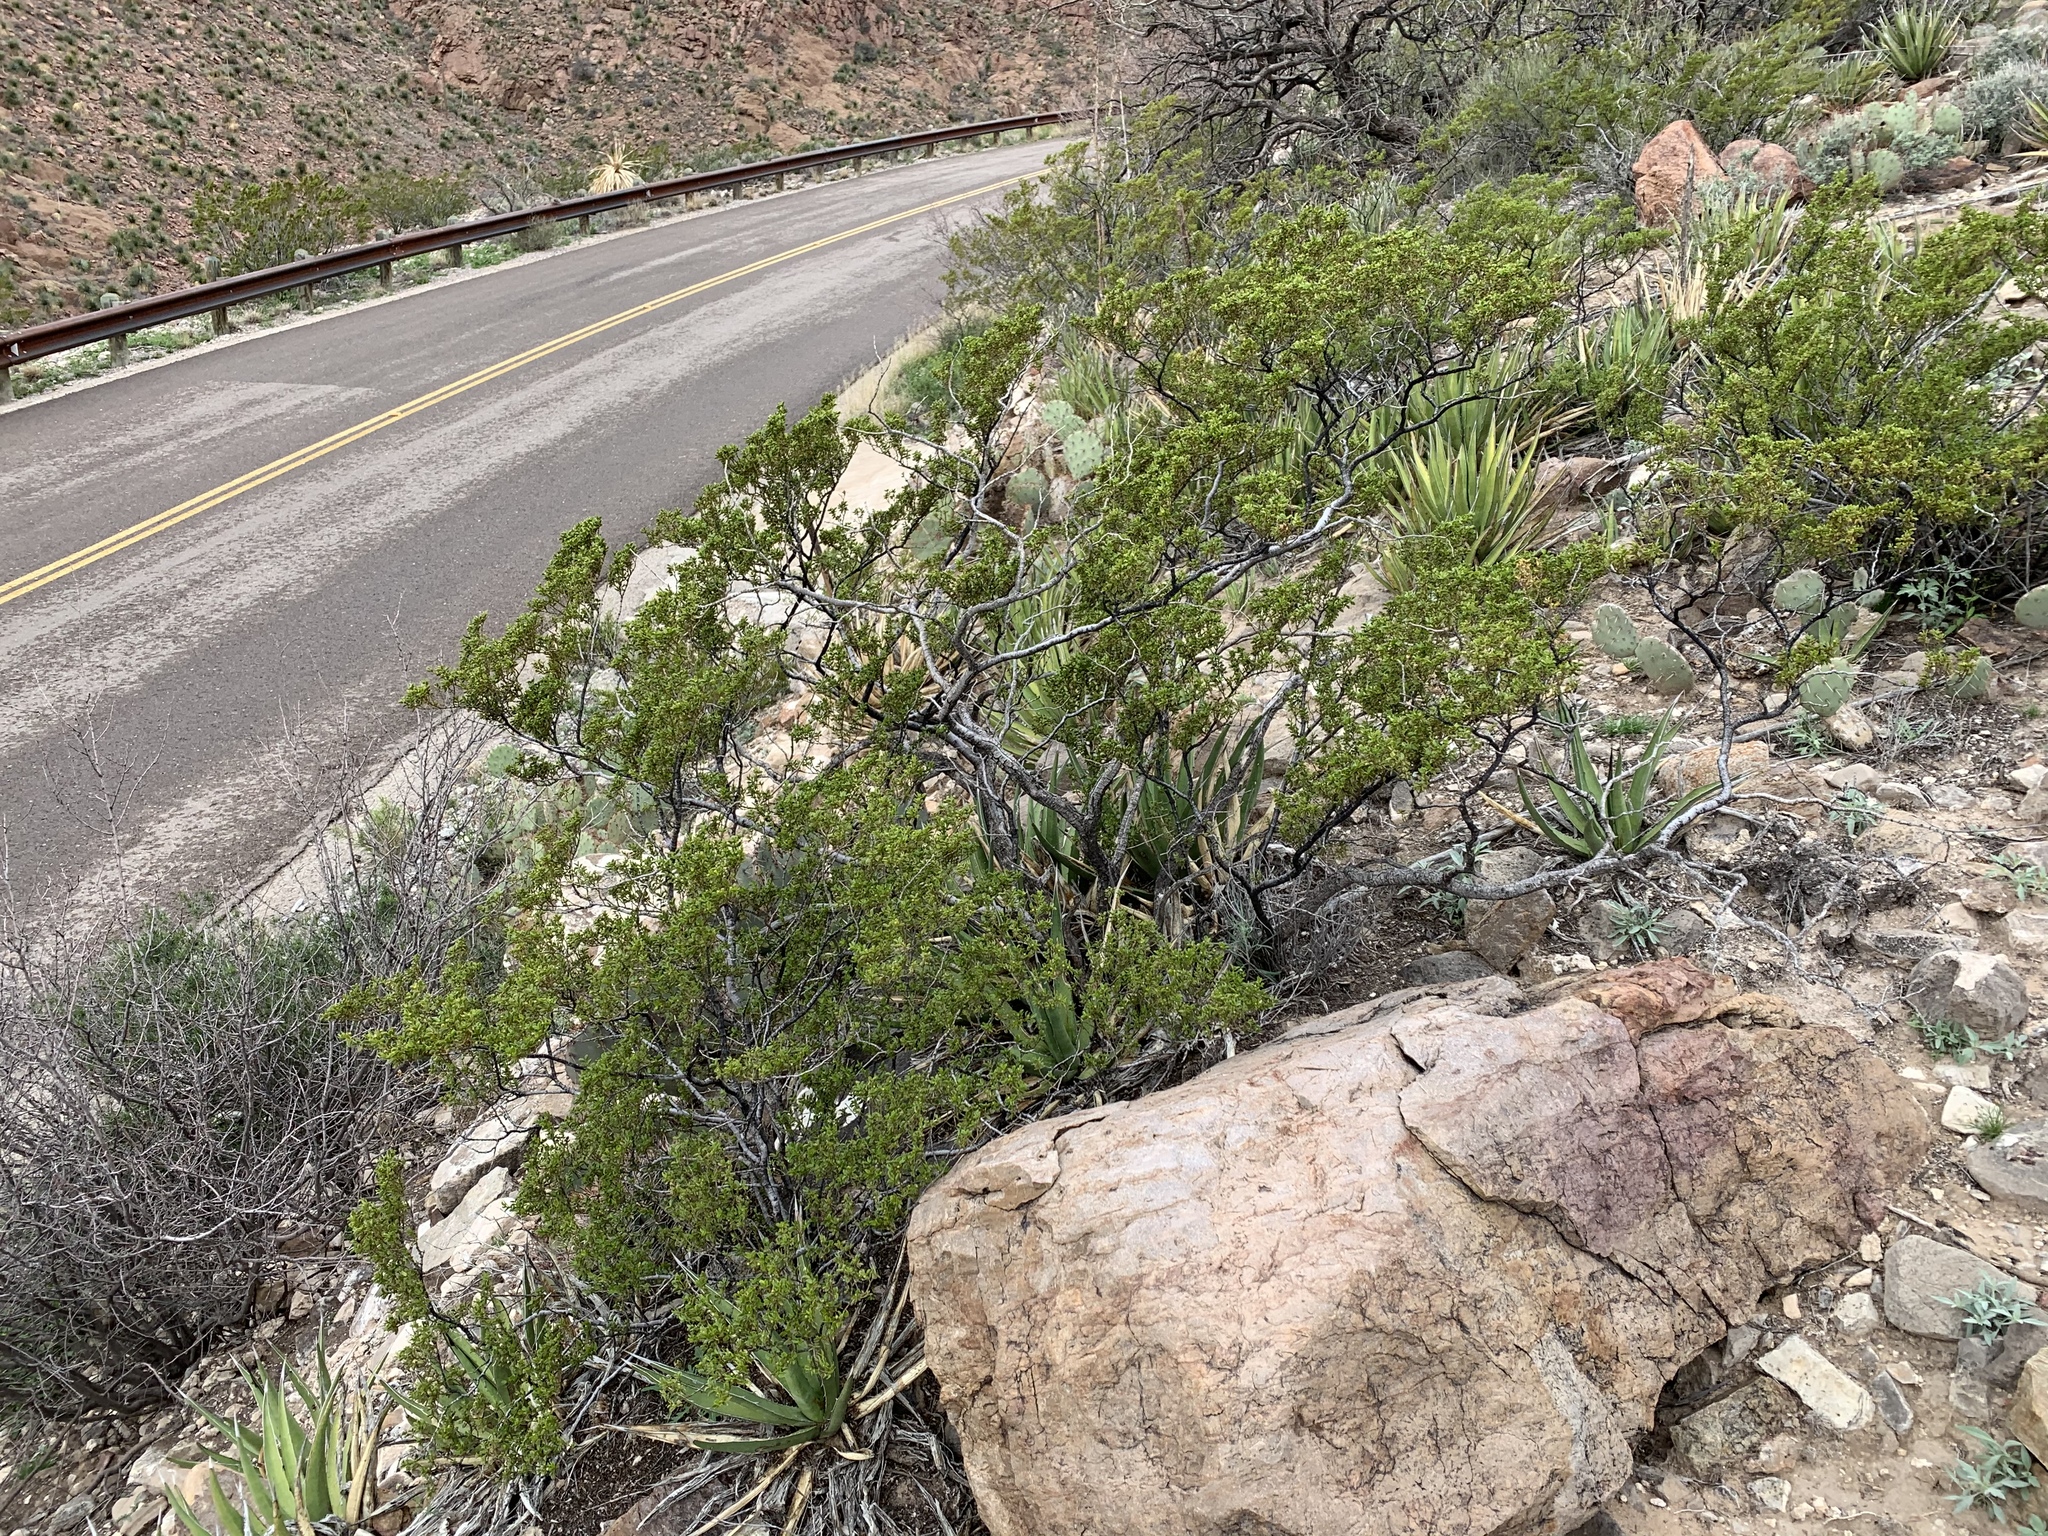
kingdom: Plantae
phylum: Tracheophyta
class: Magnoliopsida
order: Zygophyllales
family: Zygophyllaceae
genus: Larrea
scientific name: Larrea tridentata
